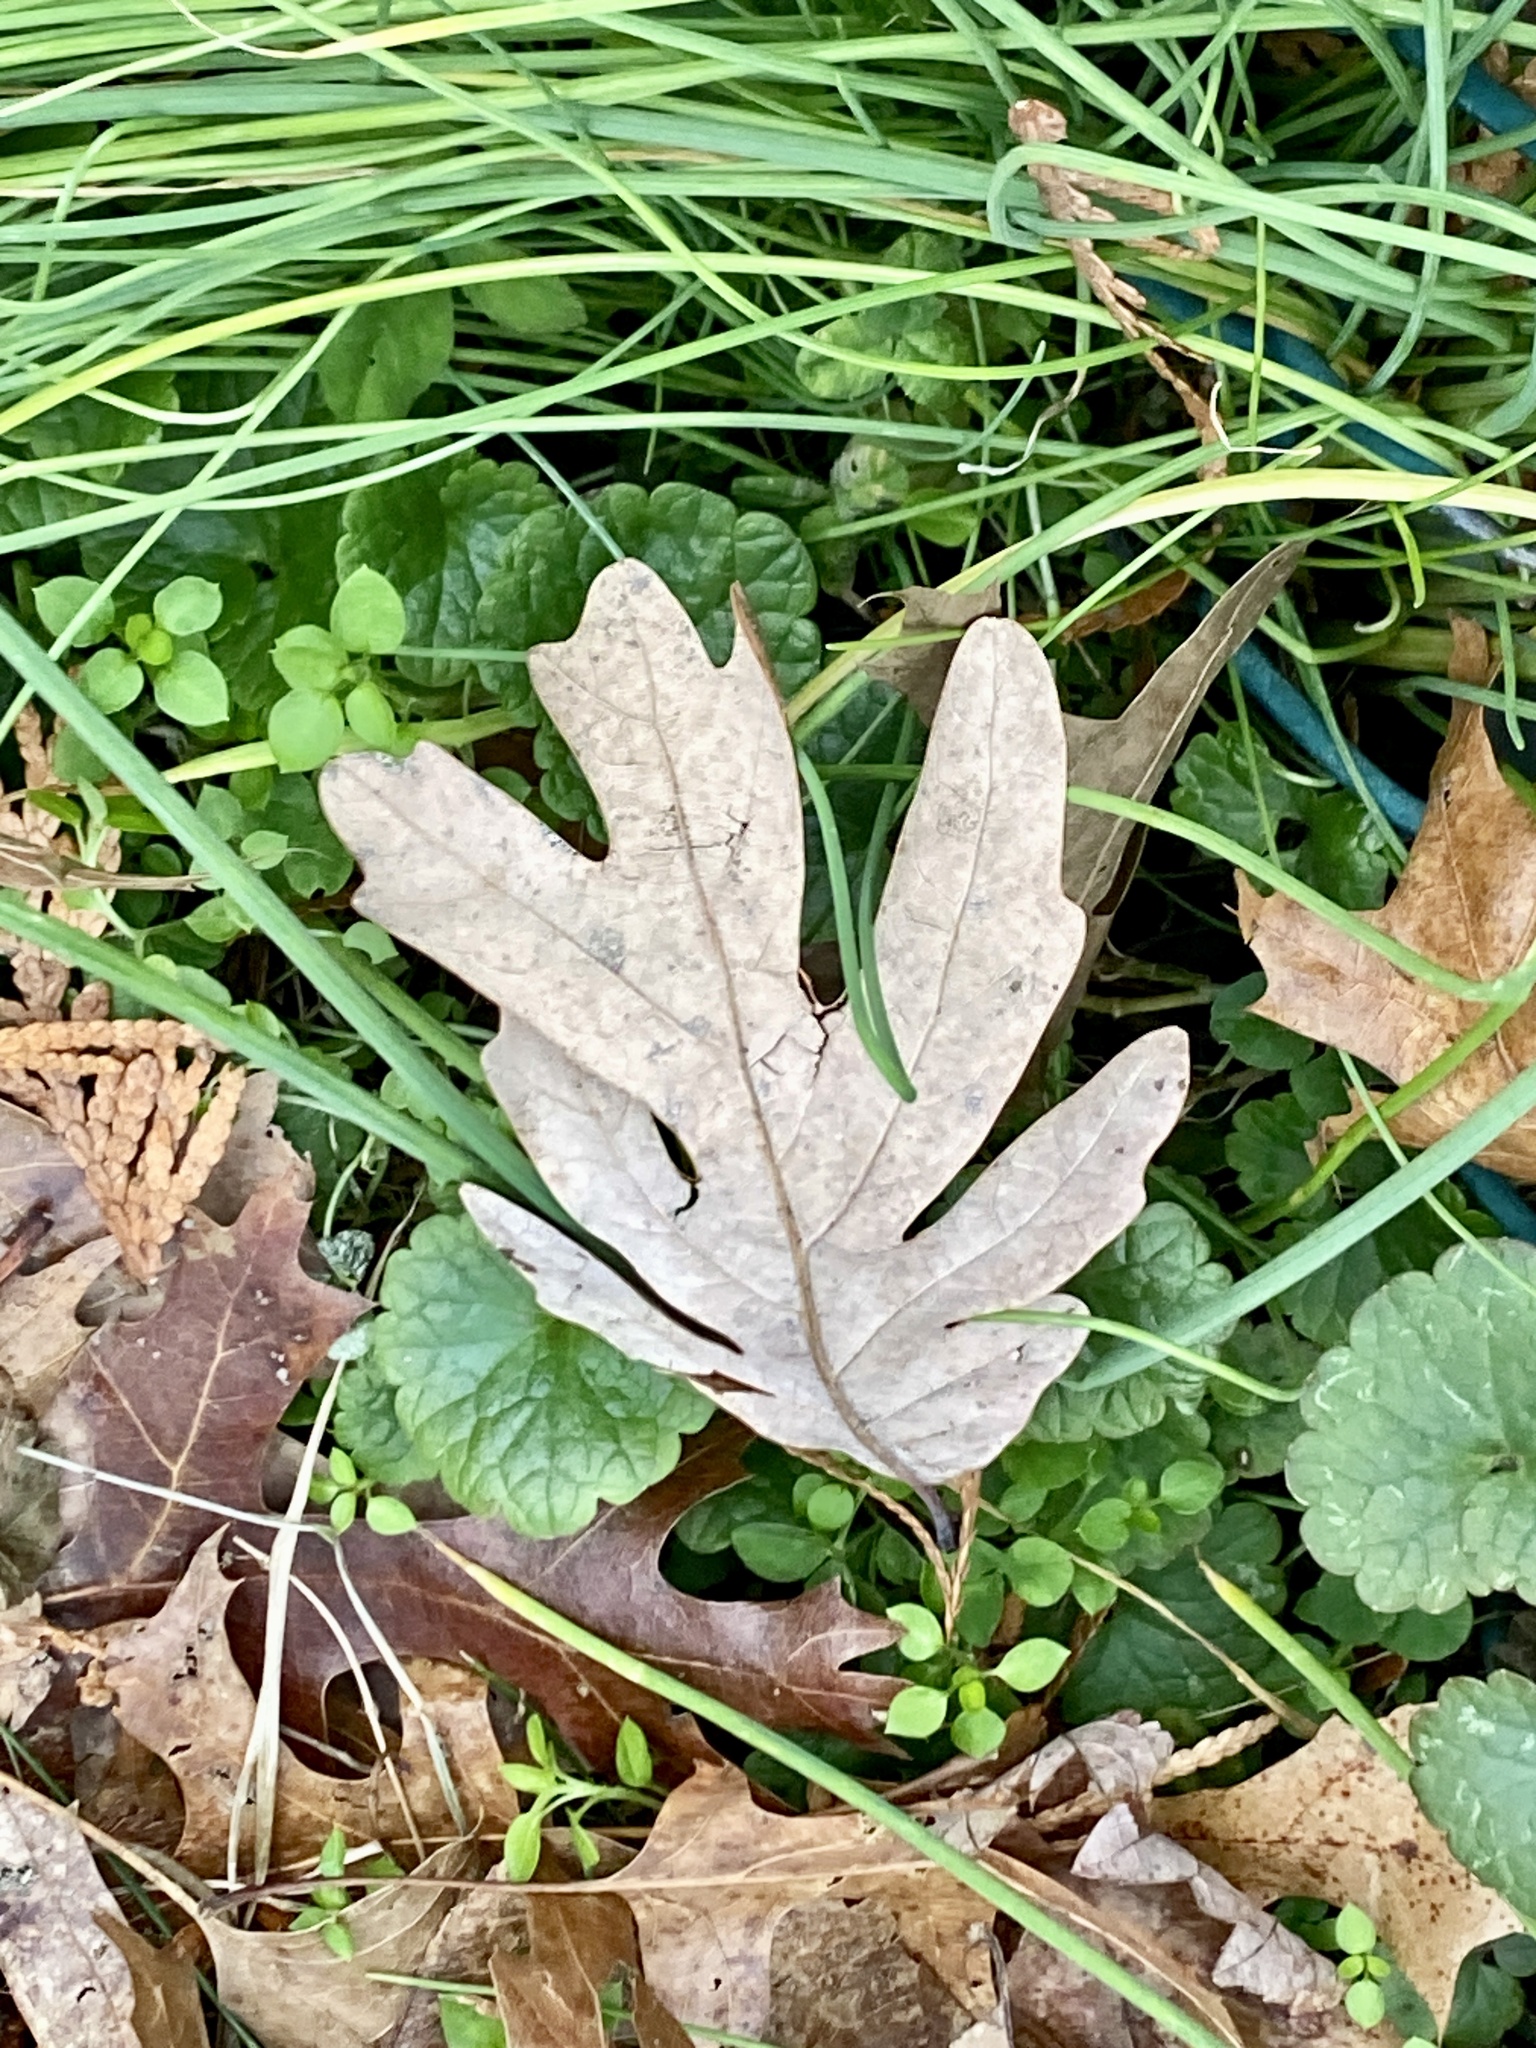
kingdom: Plantae
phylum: Tracheophyta
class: Magnoliopsida
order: Fagales
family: Fagaceae
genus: Quercus
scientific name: Quercus alba
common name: White oak
